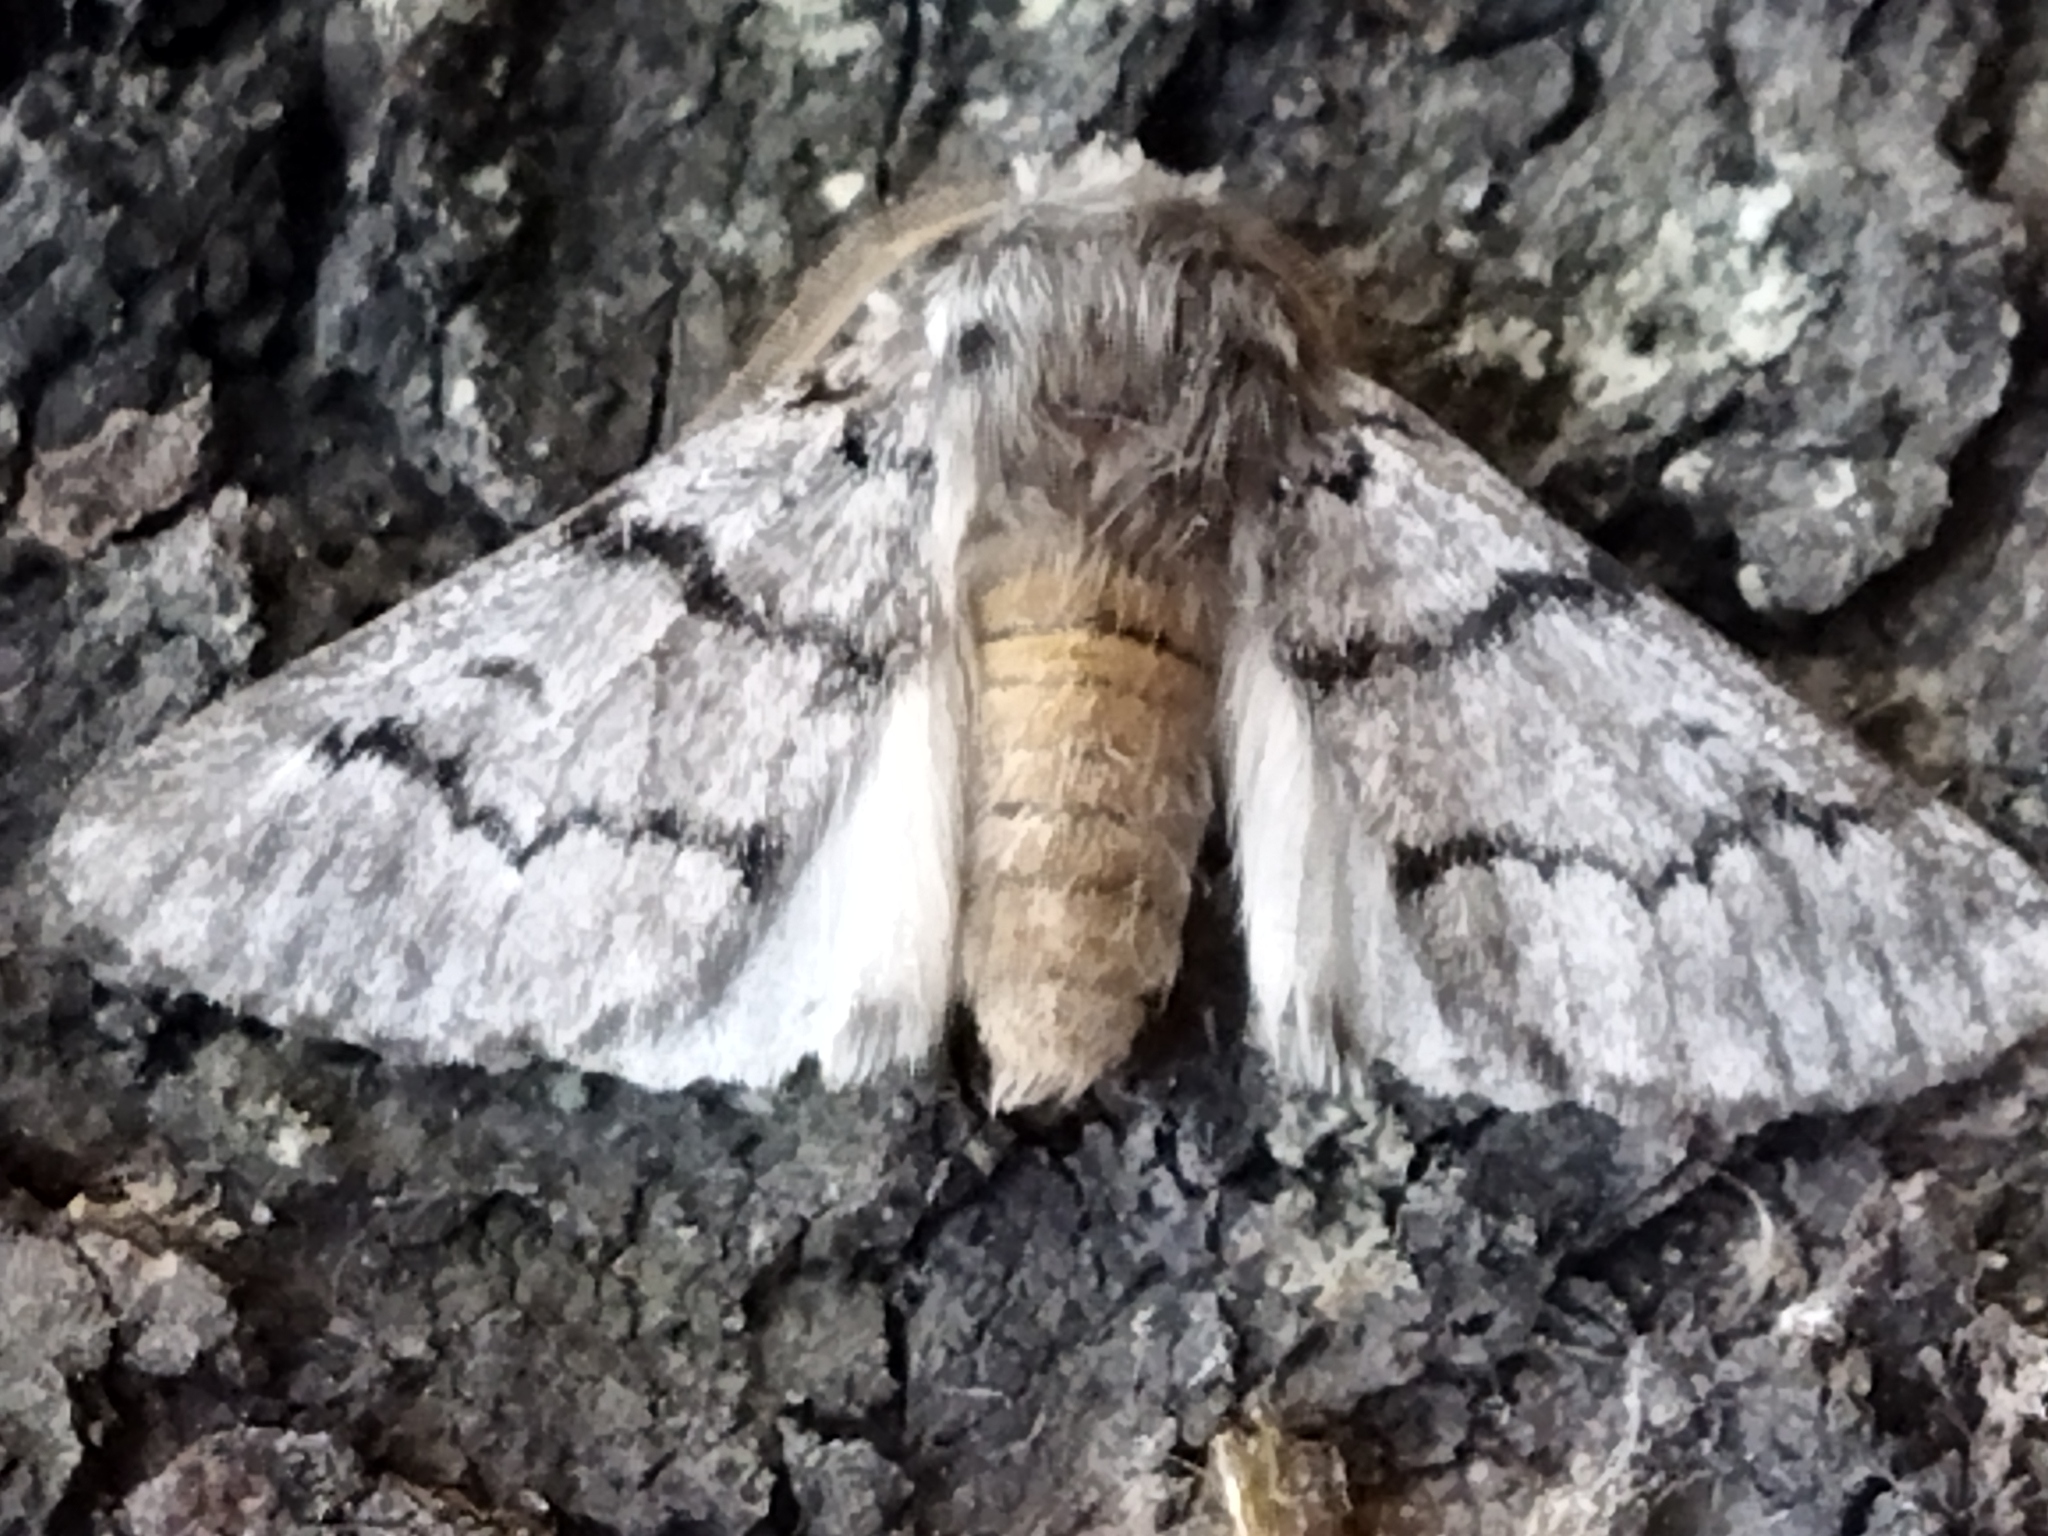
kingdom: Animalia
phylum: Arthropoda
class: Insecta
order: Lepidoptera
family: Notodontidae
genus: Thaumetopoea
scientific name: Thaumetopoea pityocampa
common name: Pine processionary
